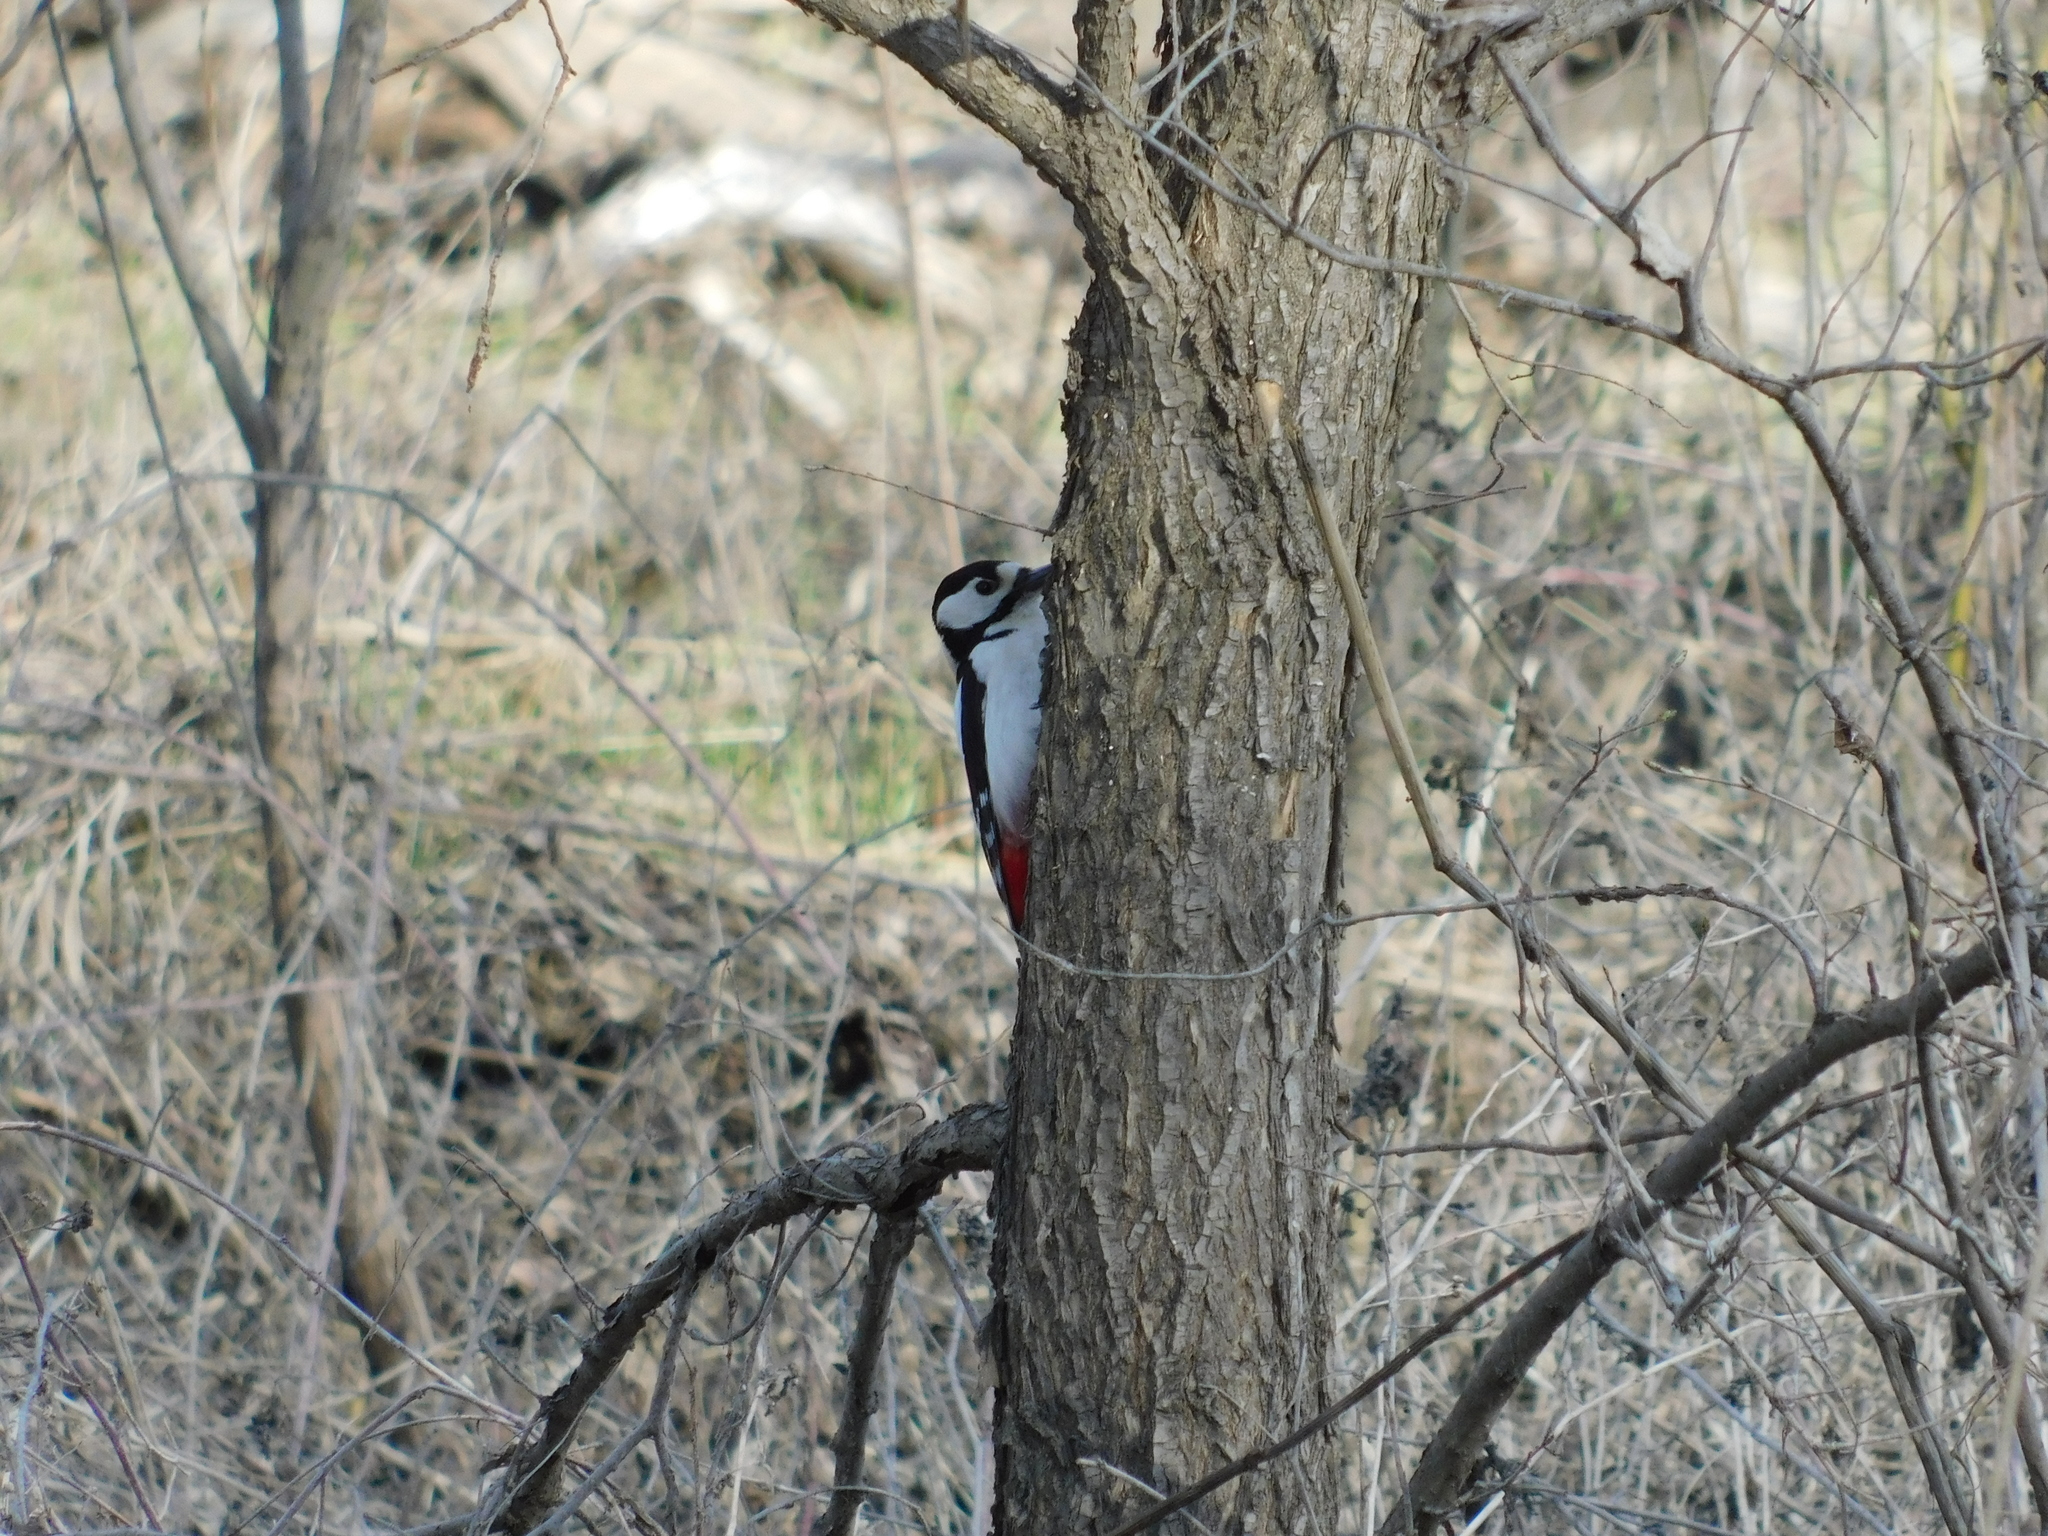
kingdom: Animalia
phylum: Chordata
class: Aves
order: Piciformes
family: Picidae
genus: Dendrocopos
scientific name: Dendrocopos major
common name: Great spotted woodpecker
